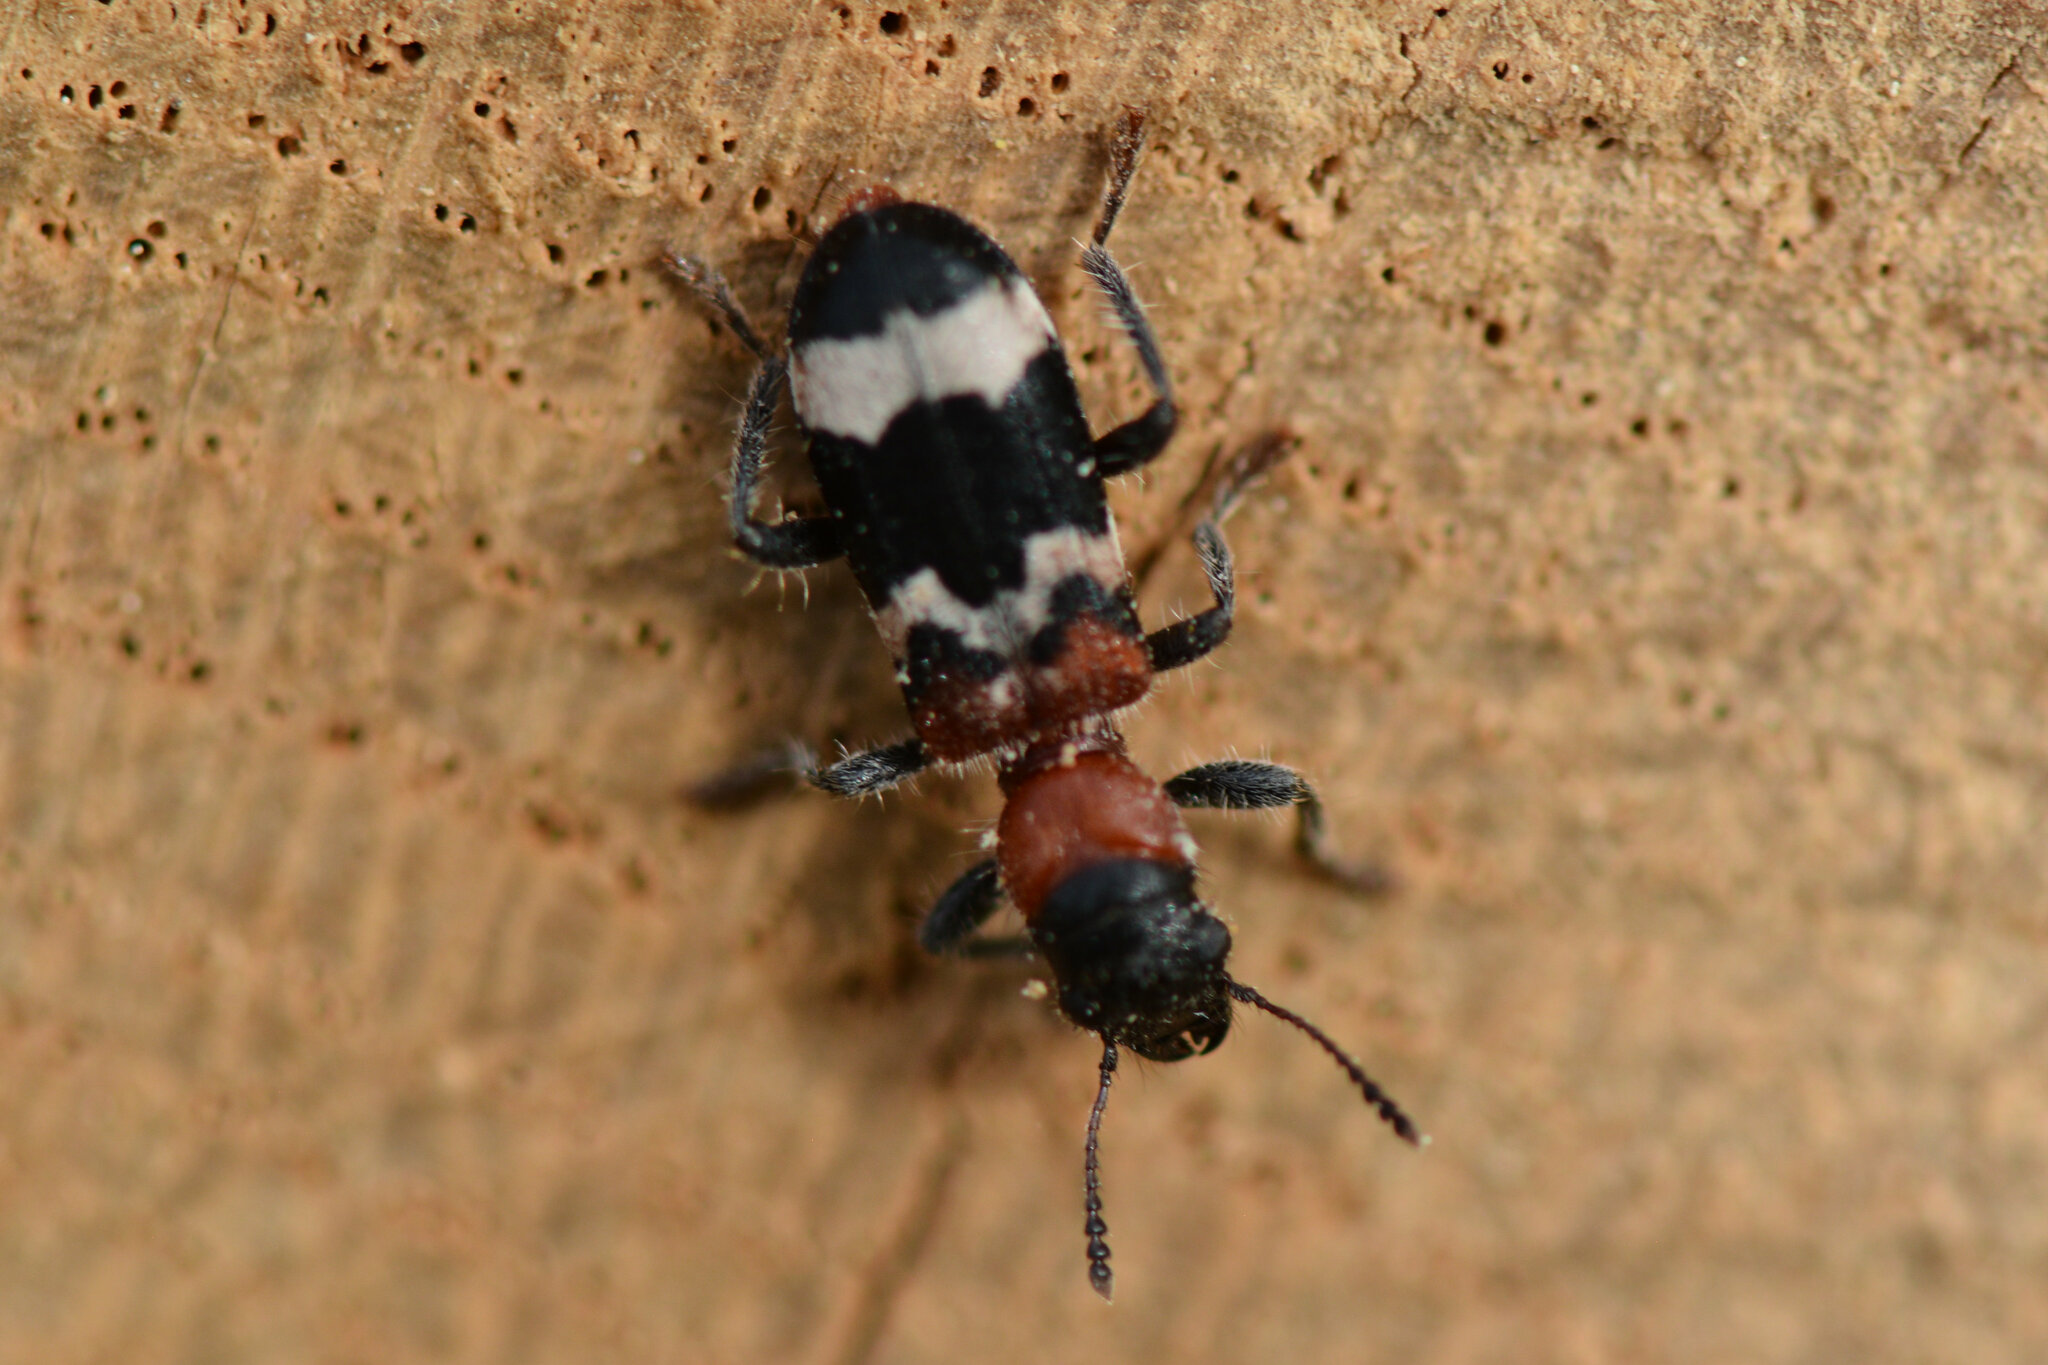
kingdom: Animalia
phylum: Arthropoda
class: Insecta
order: Coleoptera
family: Cleridae
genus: Thanasimus
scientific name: Thanasimus formicarius
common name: Ant beetle
